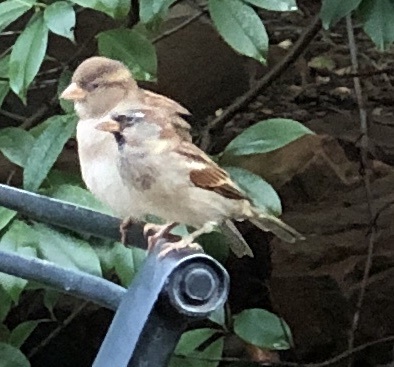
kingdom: Animalia
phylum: Chordata
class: Aves
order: Passeriformes
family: Passeridae
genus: Passer
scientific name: Passer domesticus
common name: House sparrow
